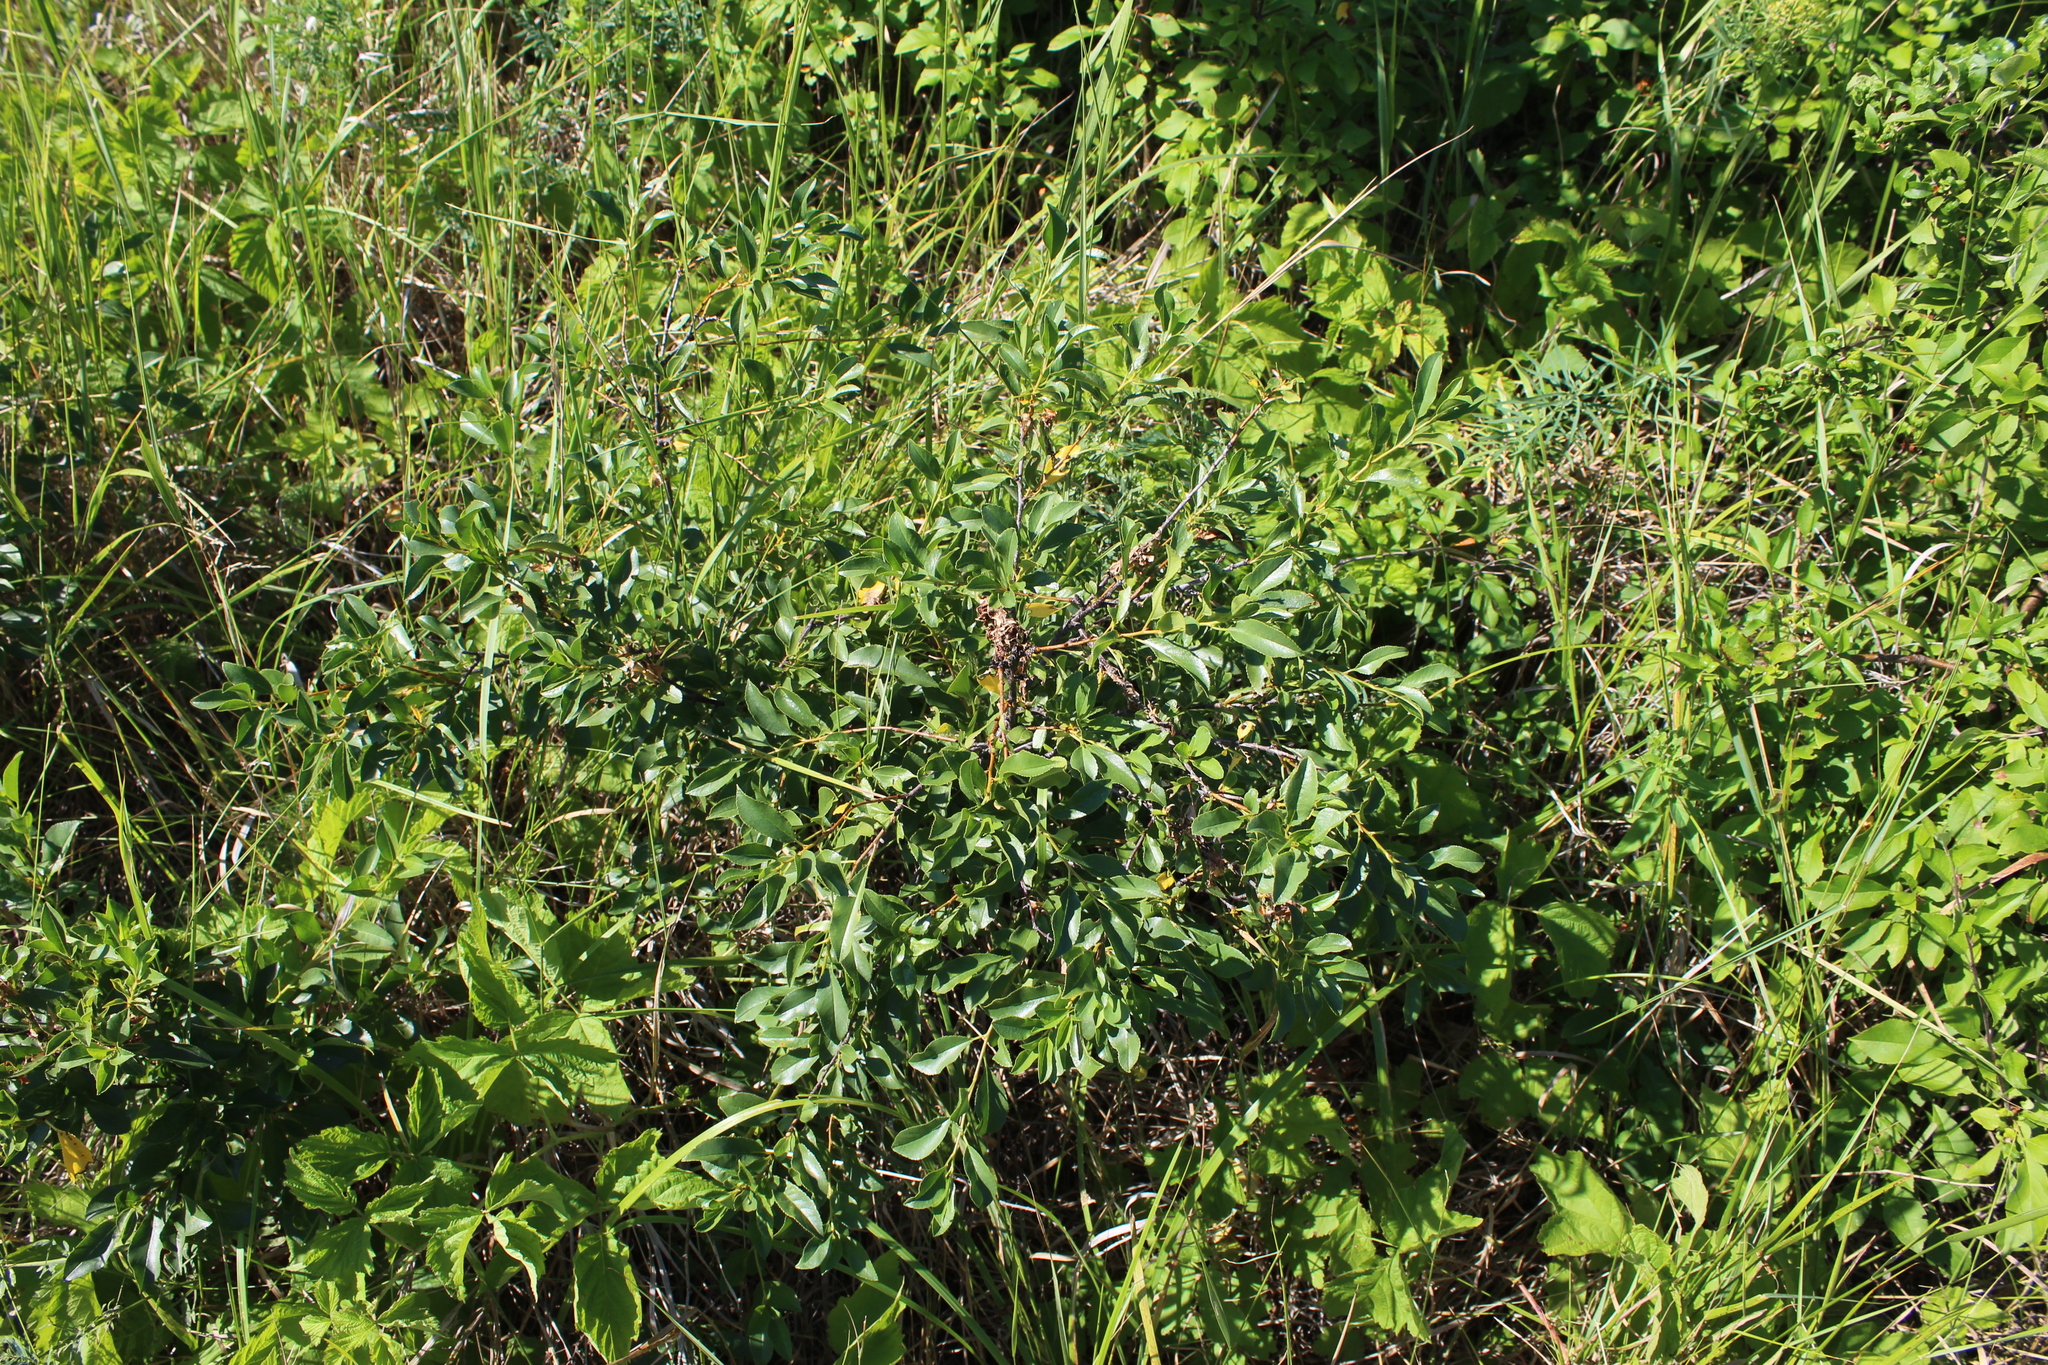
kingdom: Plantae
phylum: Tracheophyta
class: Magnoliopsida
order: Rosales
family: Rosaceae
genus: Prunus
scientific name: Prunus fruticosa
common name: European dwarf cherry
